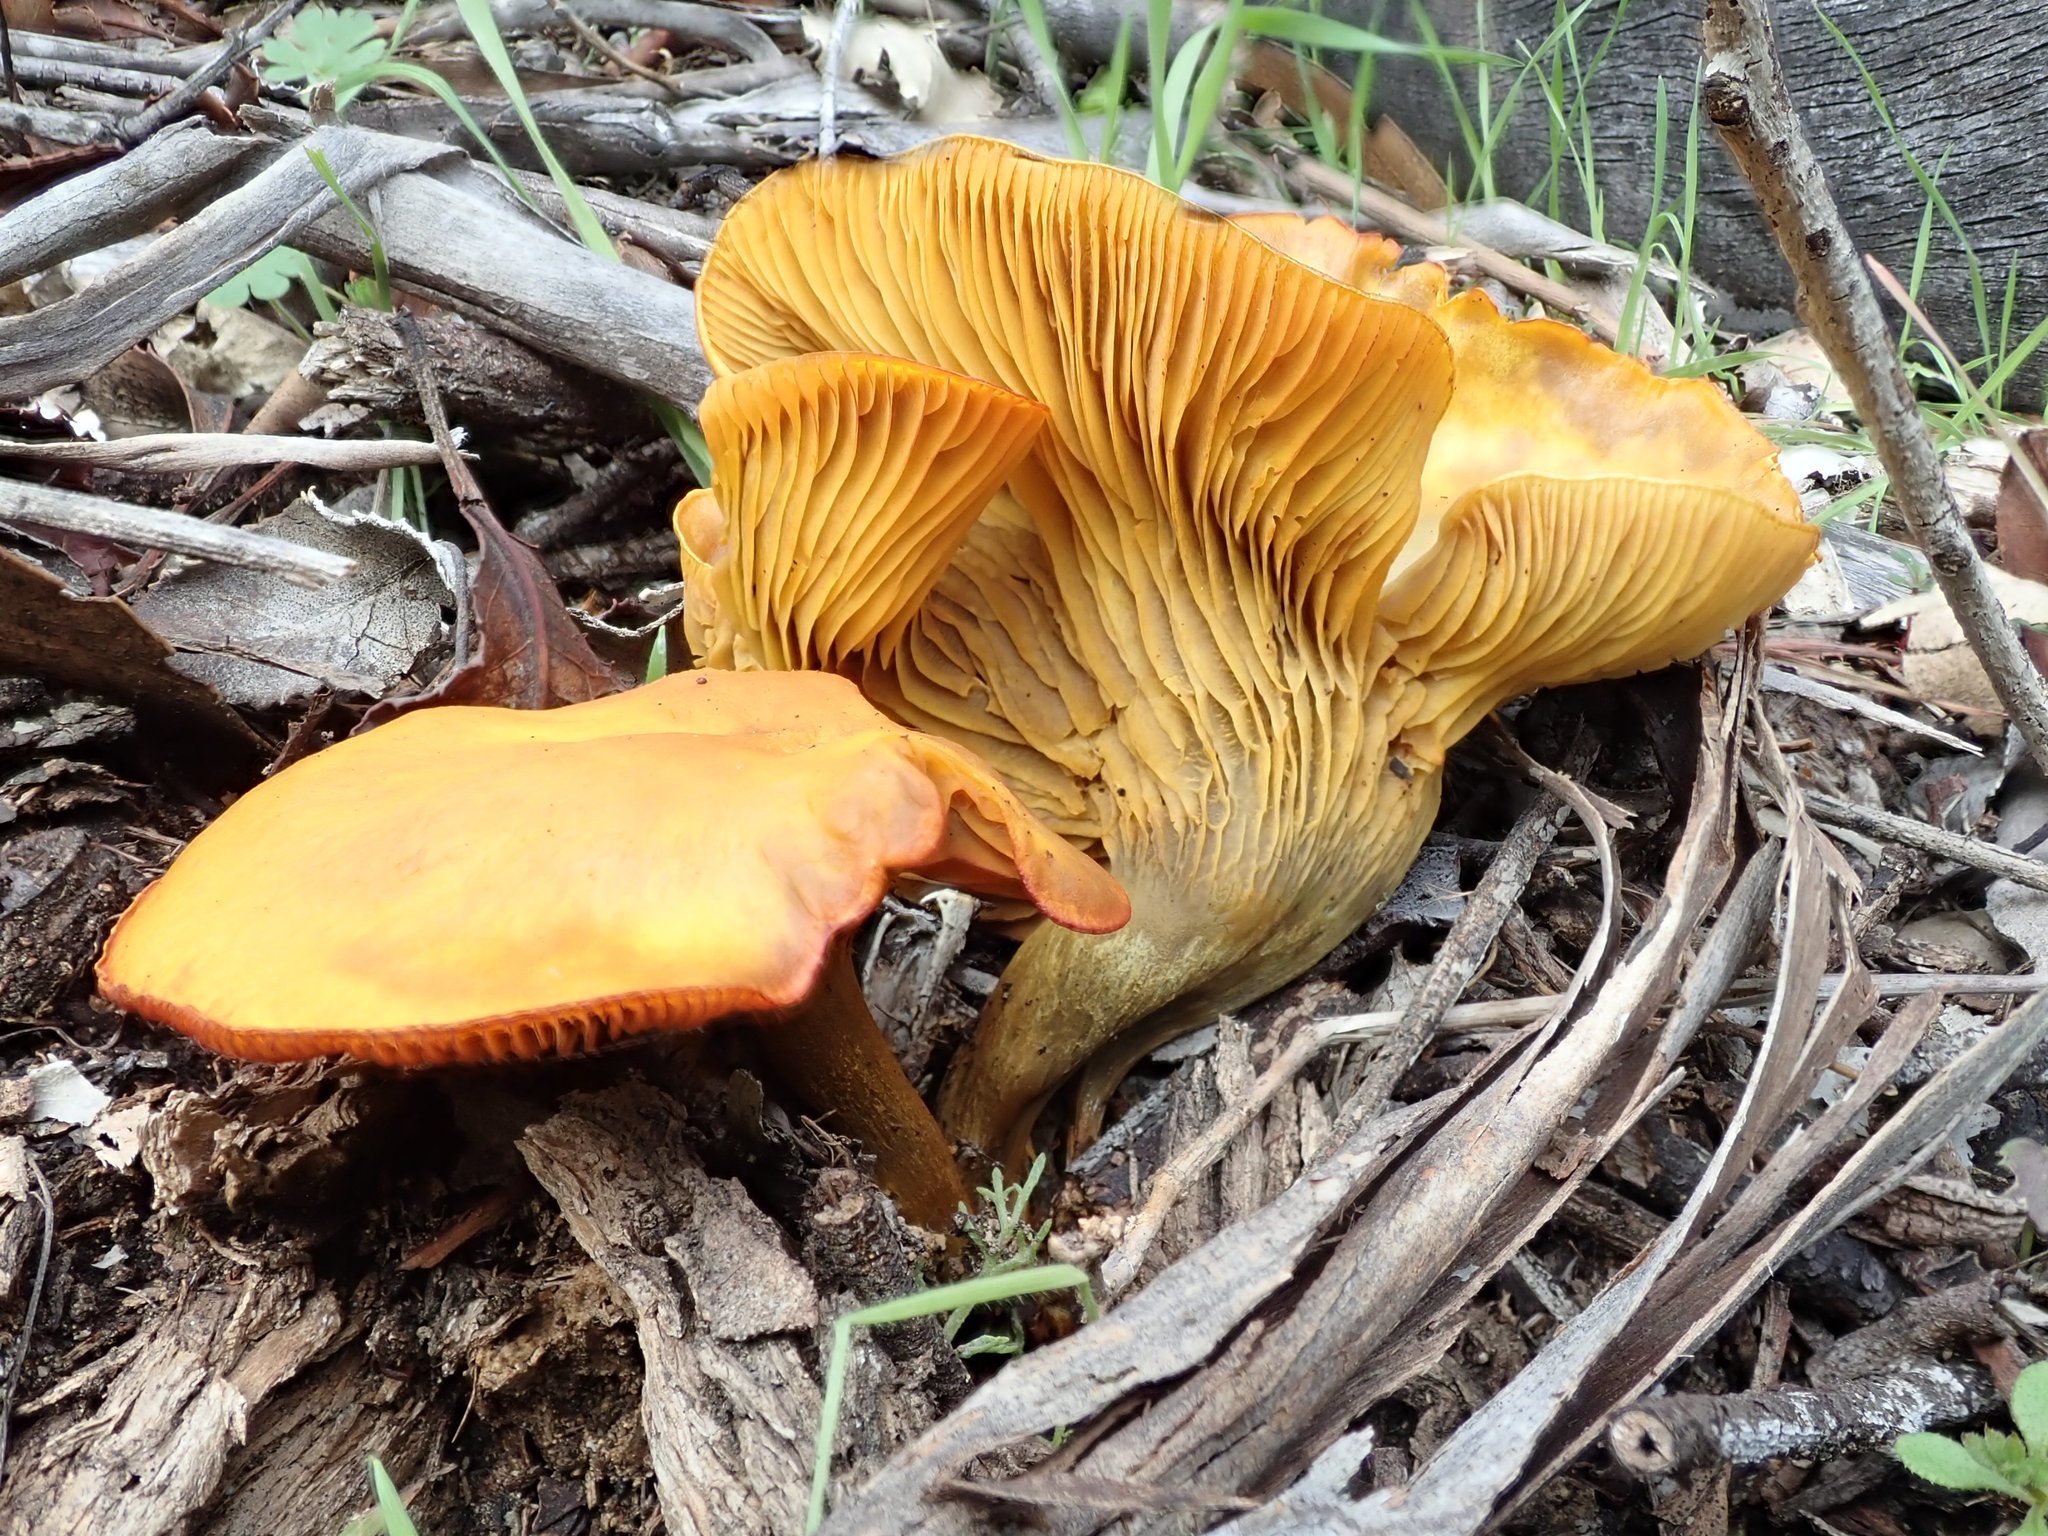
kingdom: Fungi
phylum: Basidiomycota
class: Agaricomycetes
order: Agaricales
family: Omphalotaceae
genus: Omphalotus
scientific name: Omphalotus olivascens
